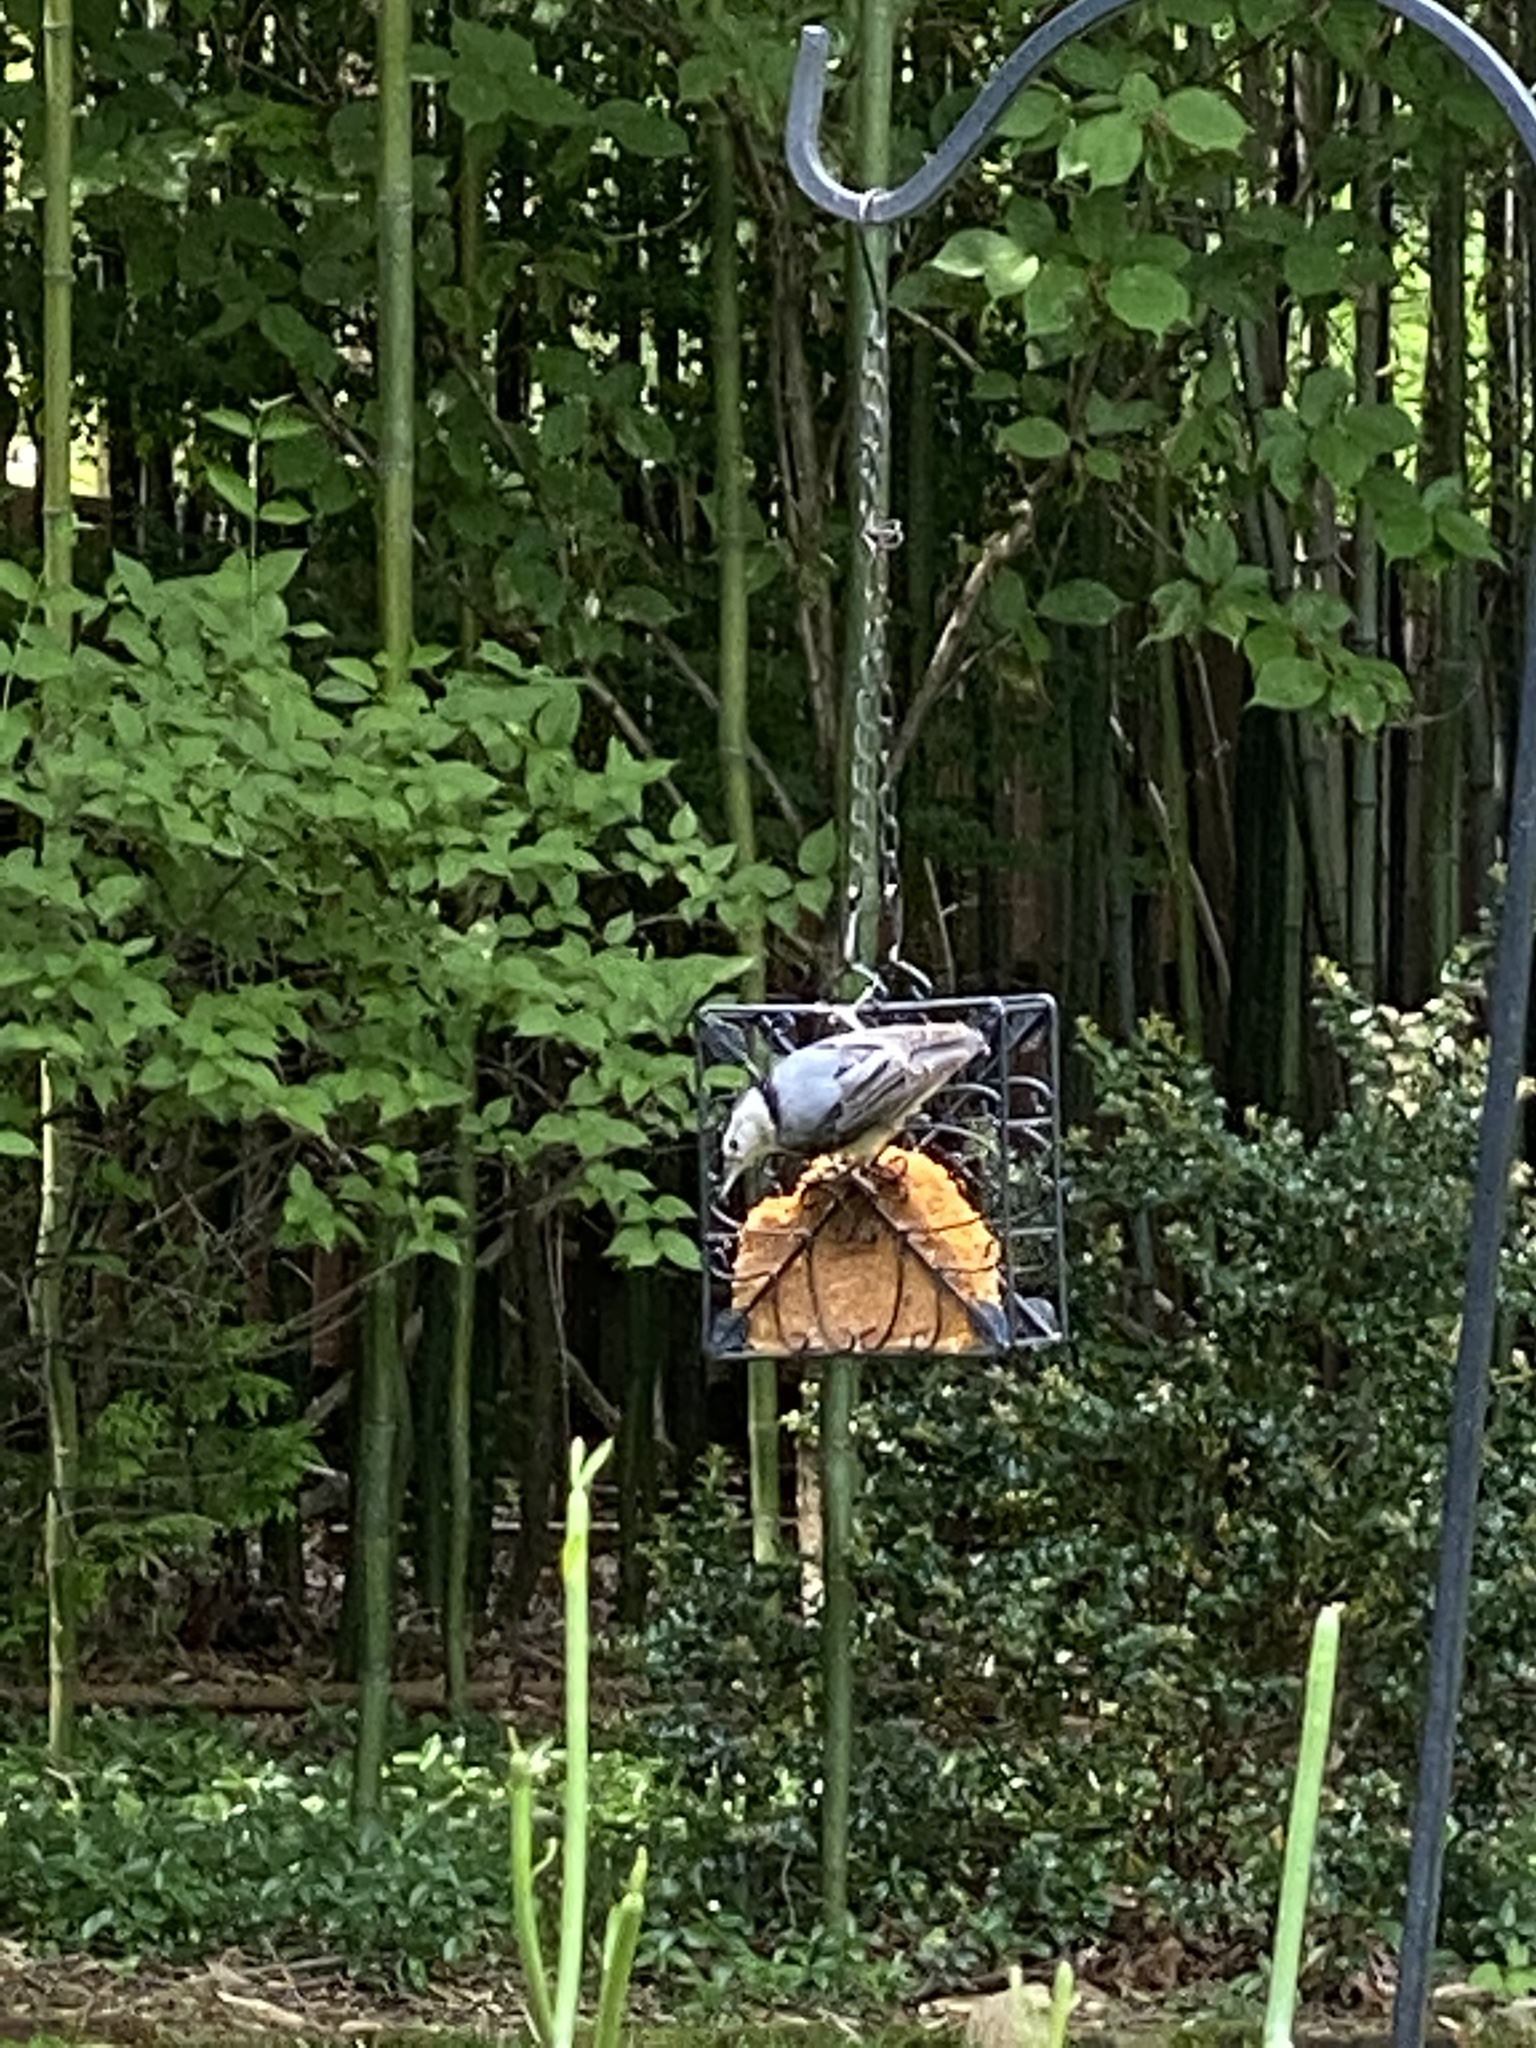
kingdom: Animalia
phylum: Chordata
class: Aves
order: Passeriformes
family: Sittidae
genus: Sitta
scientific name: Sitta carolinensis
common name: White-breasted nuthatch
